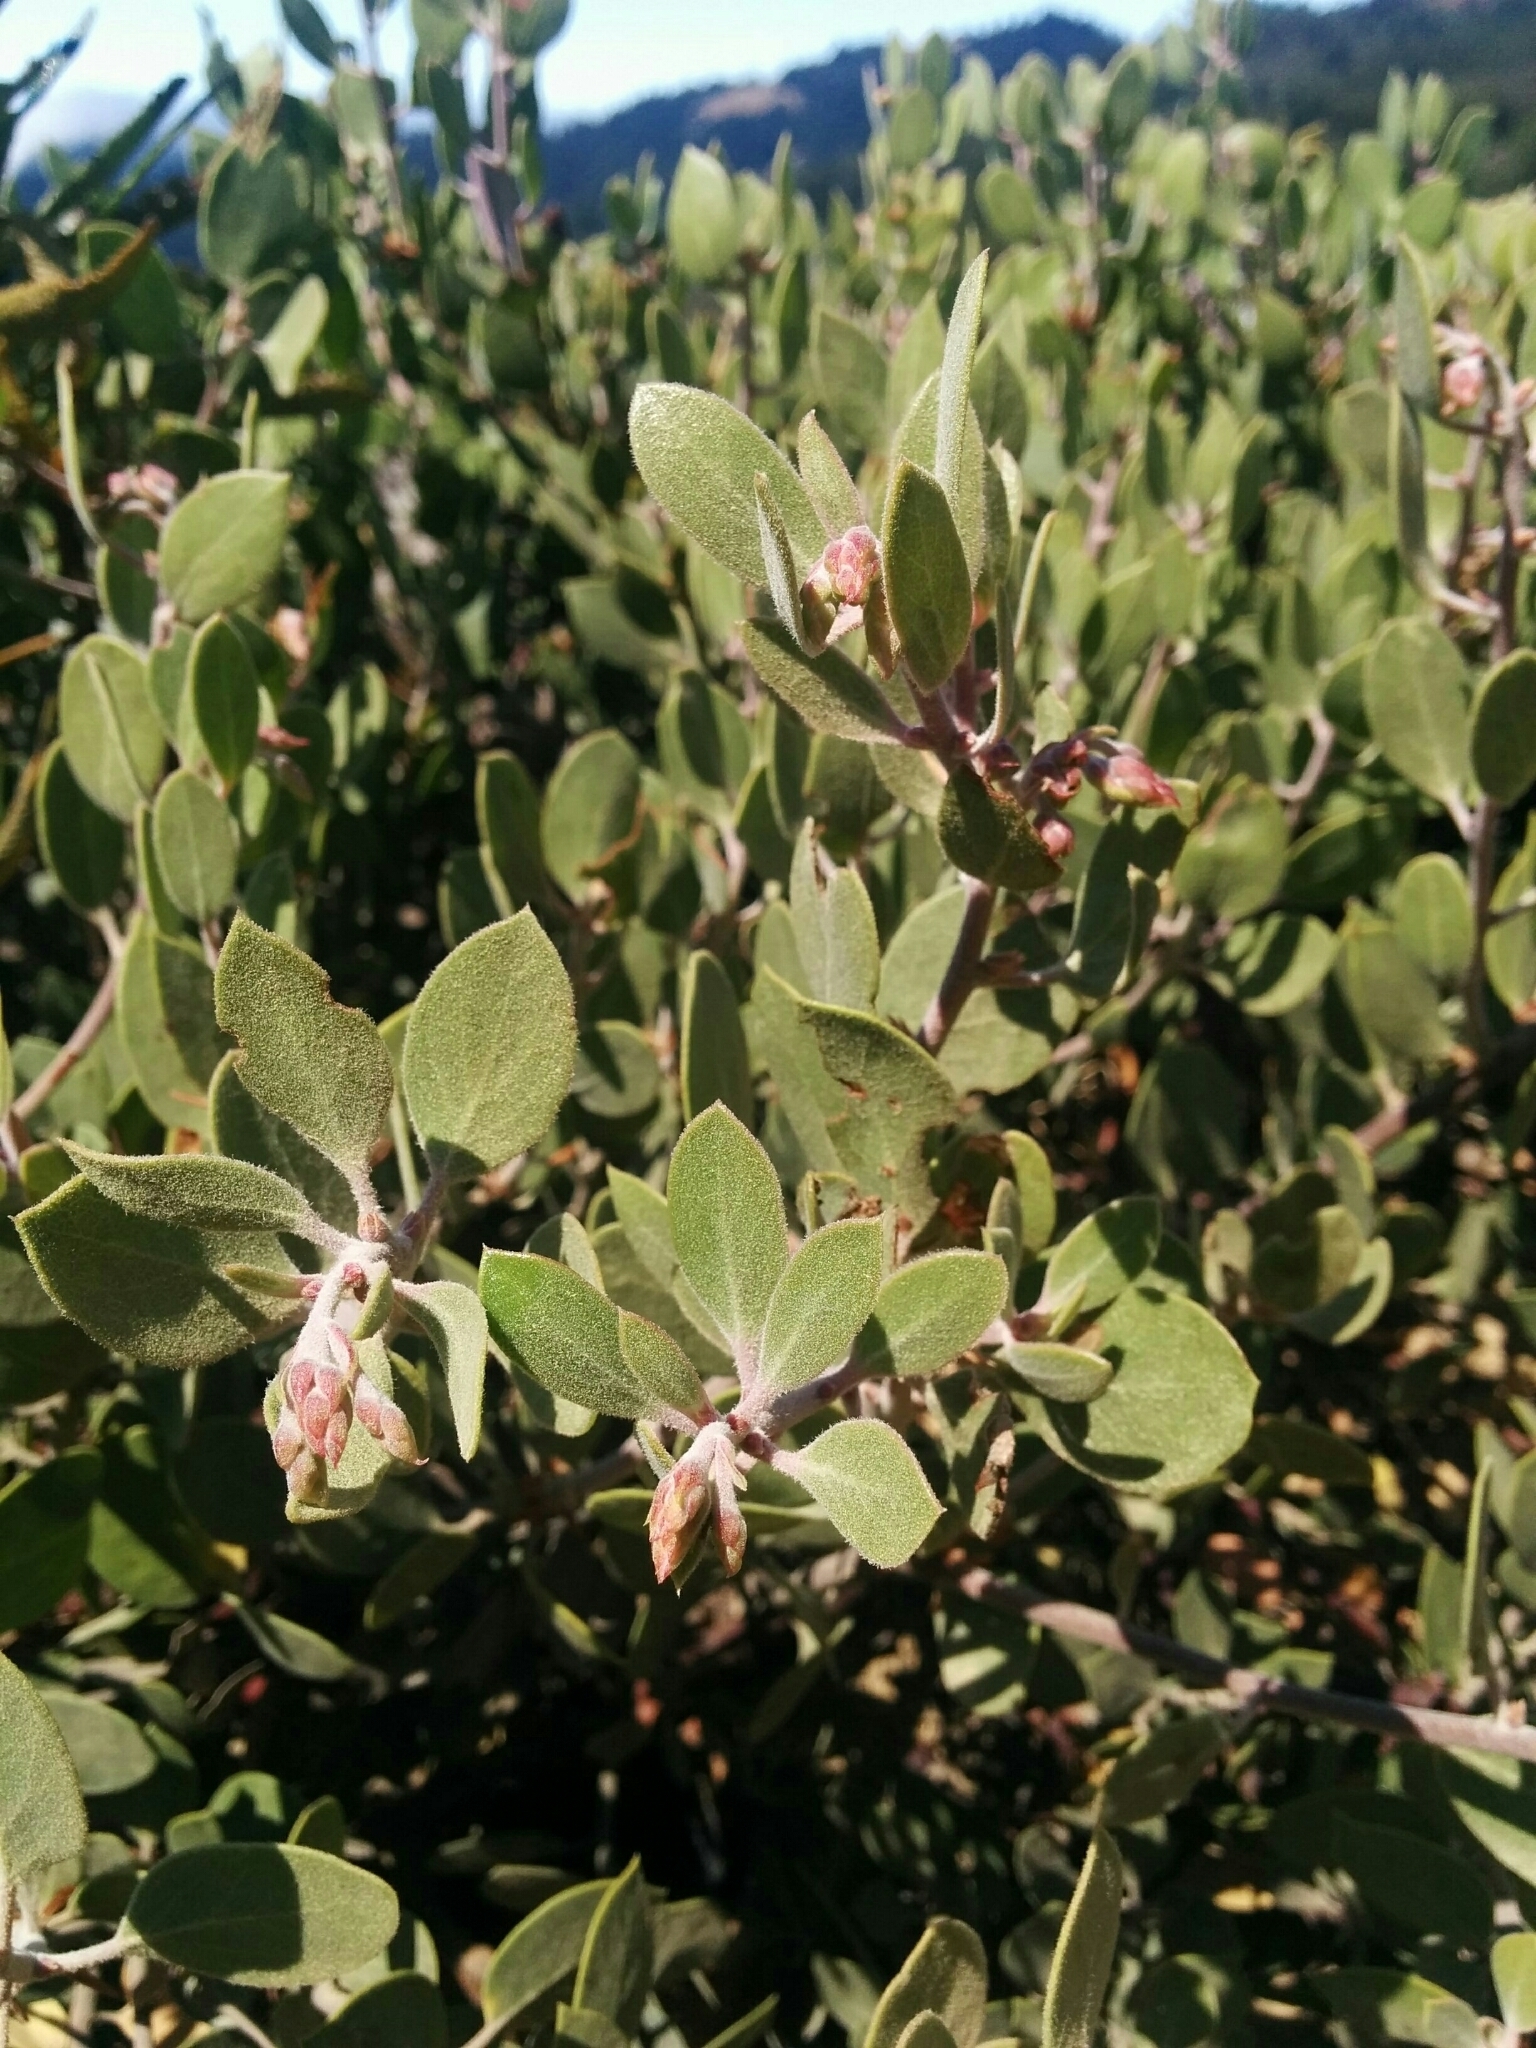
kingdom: Plantae
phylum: Tracheophyta
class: Magnoliopsida
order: Ericales
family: Ericaceae
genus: Arctostaphylos
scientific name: Arctostaphylos montana
